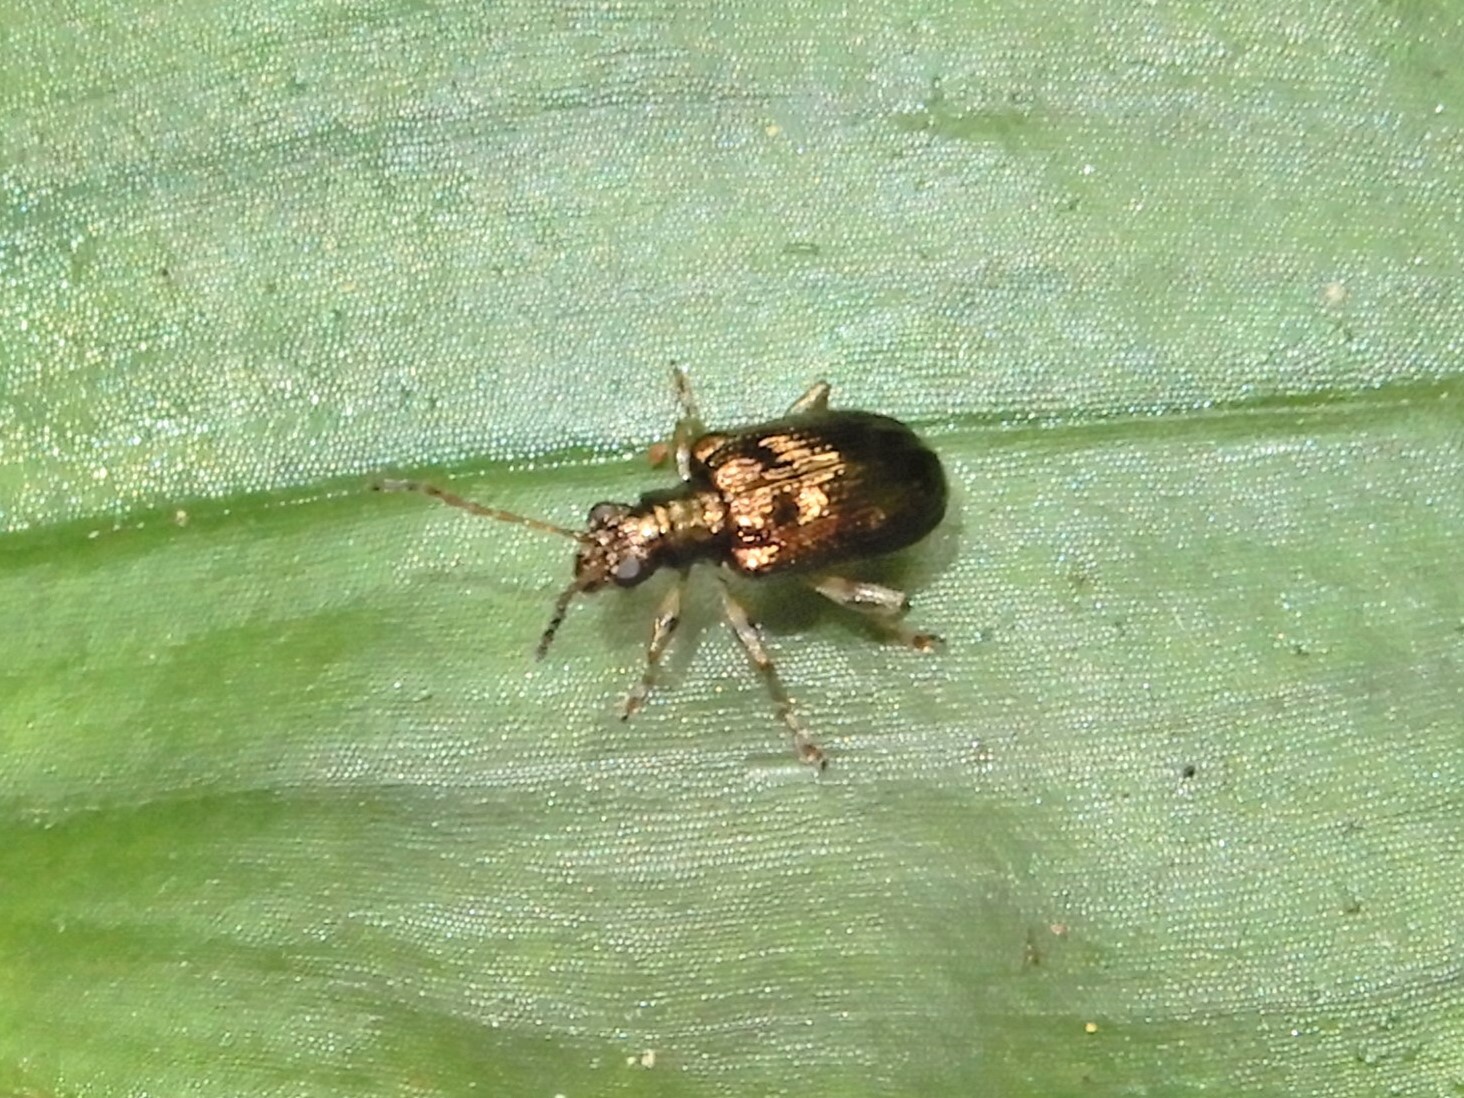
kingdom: Animalia
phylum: Arthropoda
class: Insecta
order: Coleoptera
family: Chrysomelidae
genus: Neolema
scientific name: Neolema ogloblini
